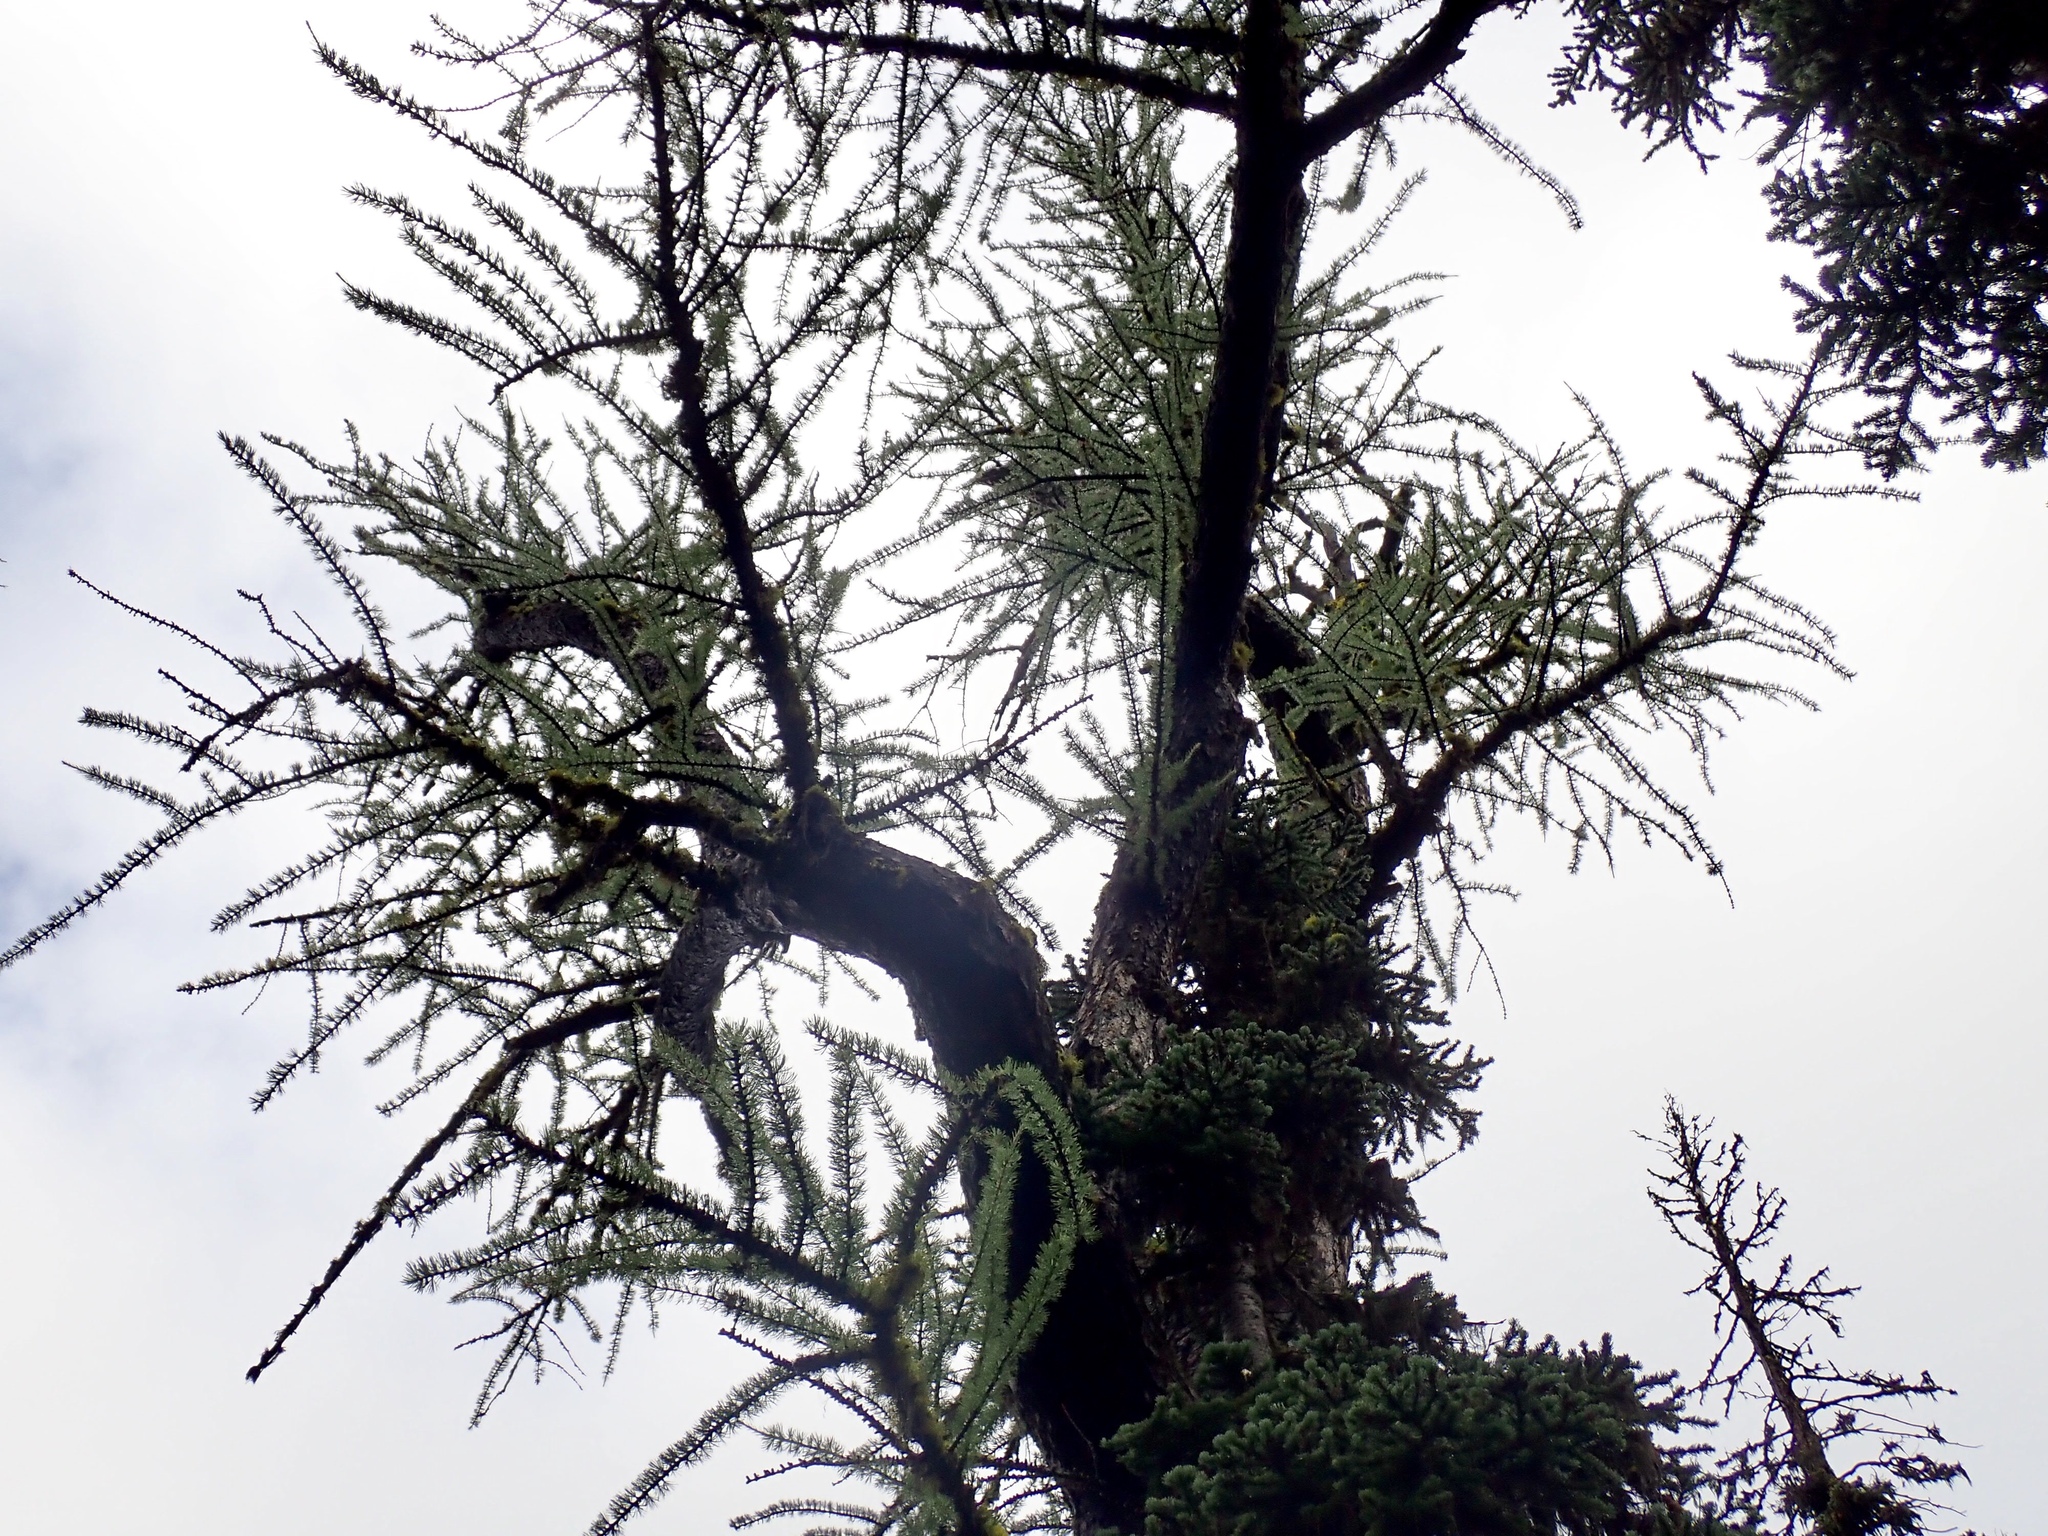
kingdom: Plantae
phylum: Tracheophyta
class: Pinopsida
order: Pinales
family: Pinaceae
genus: Larix
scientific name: Larix lyallii
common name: Alpine larch
